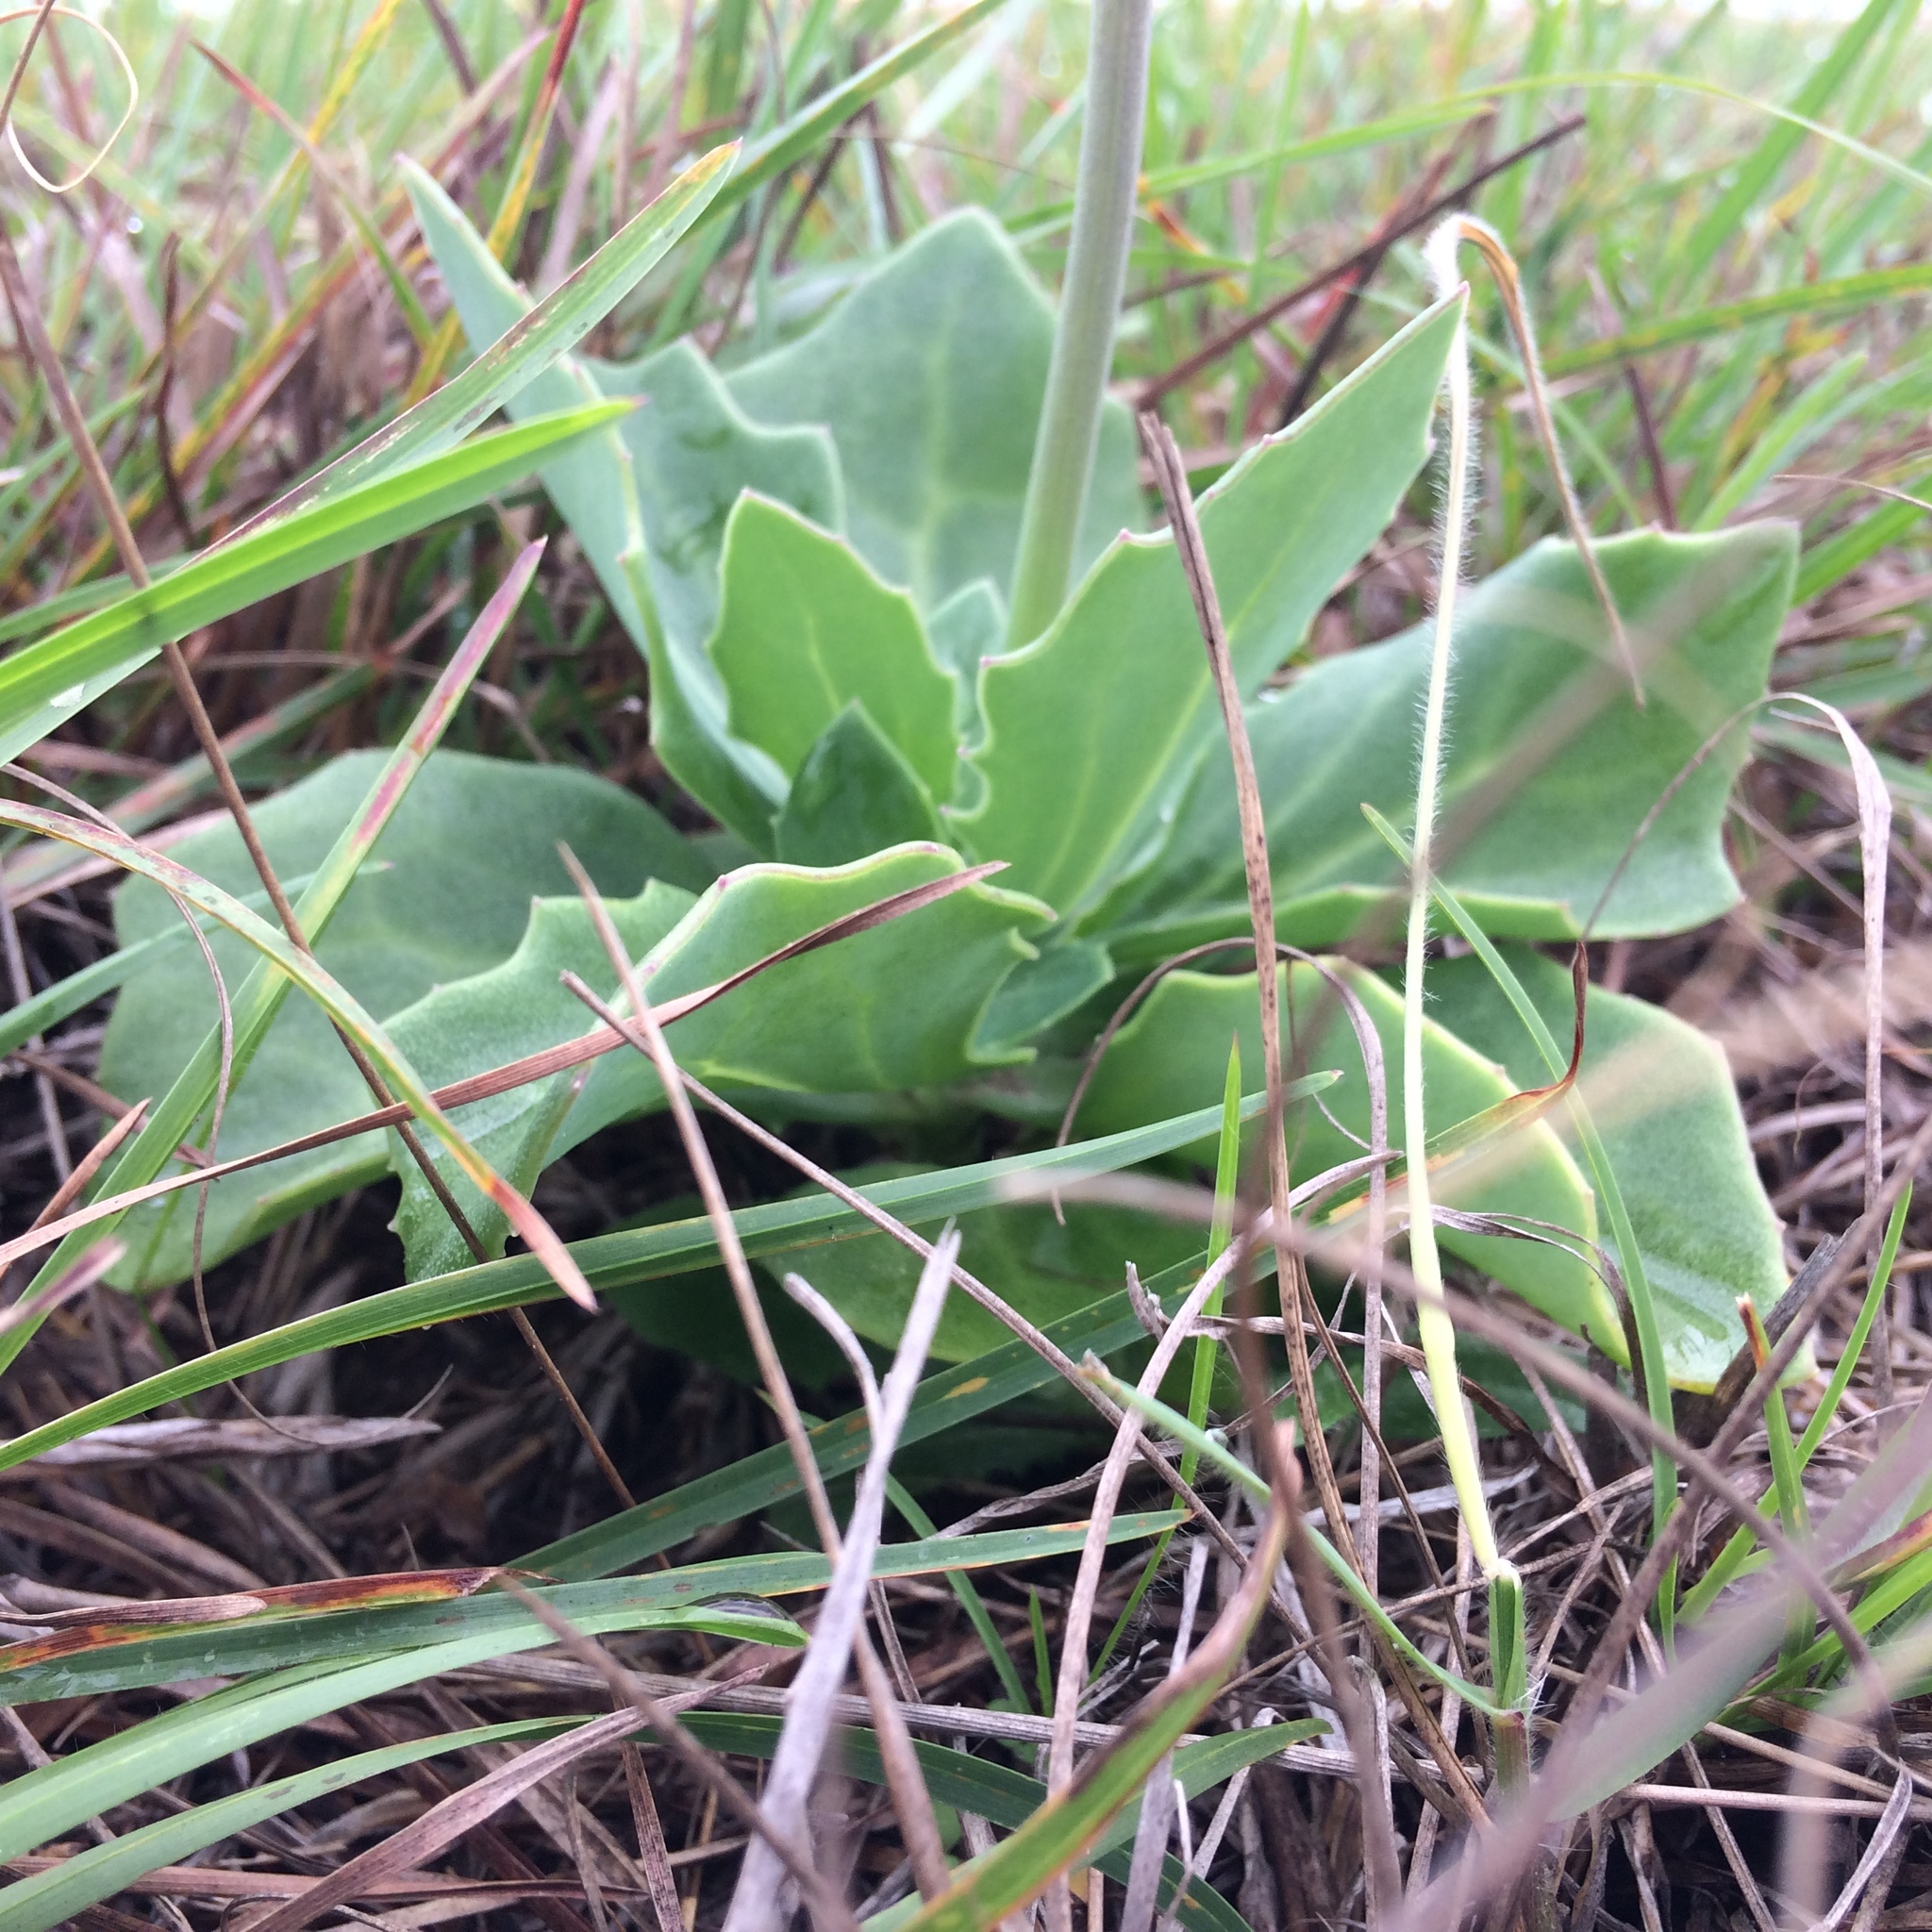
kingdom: Plantae
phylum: Tracheophyta
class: Magnoliopsida
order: Asterales
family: Asteraceae
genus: Senecio
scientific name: Senecio rhomboideus
